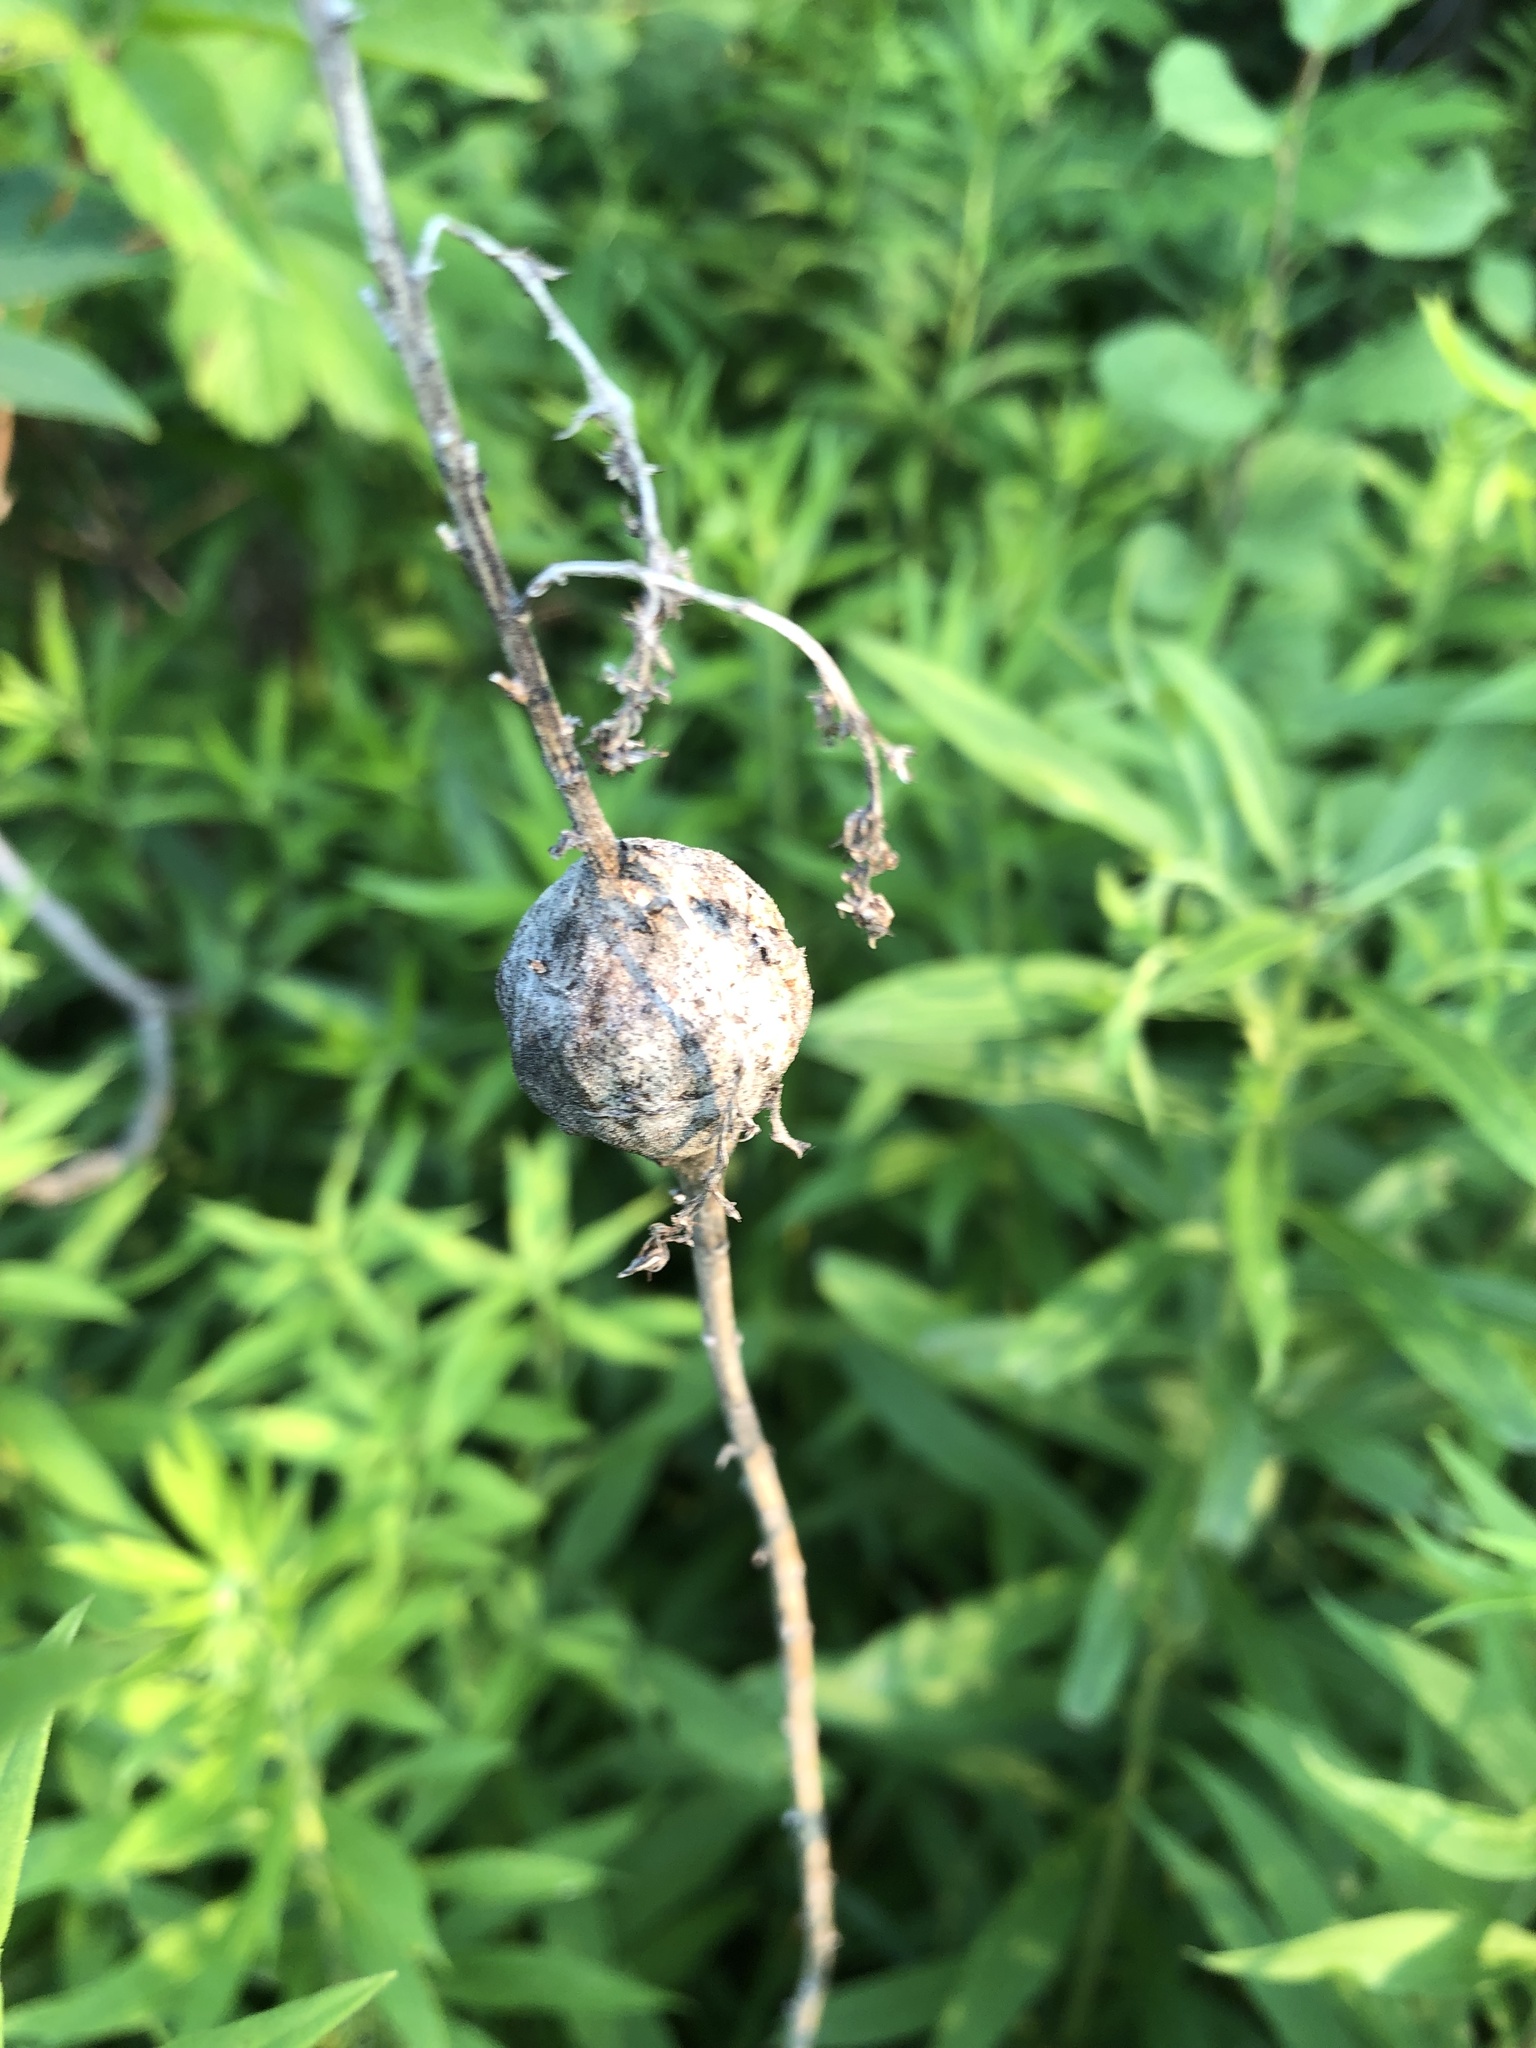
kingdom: Animalia
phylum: Arthropoda
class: Insecta
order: Diptera
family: Tephritidae
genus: Eurosta
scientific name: Eurosta solidaginis
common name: Goldenrod gall fly
